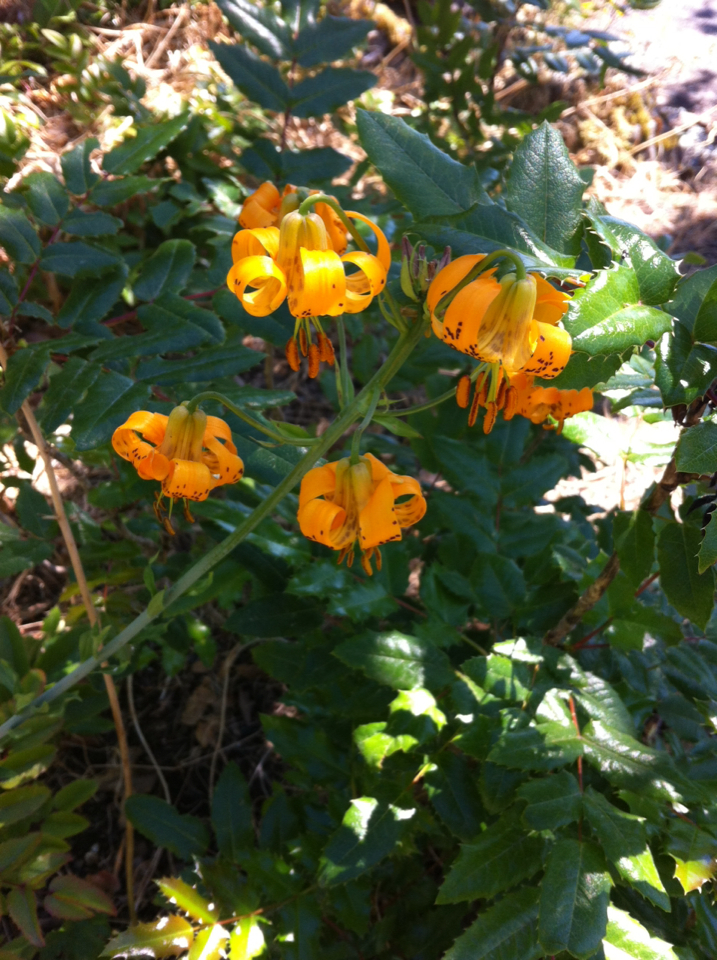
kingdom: Plantae
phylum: Tracheophyta
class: Liliopsida
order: Liliales
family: Liliaceae
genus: Lilium
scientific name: Lilium columbianum
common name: Columbia lily
